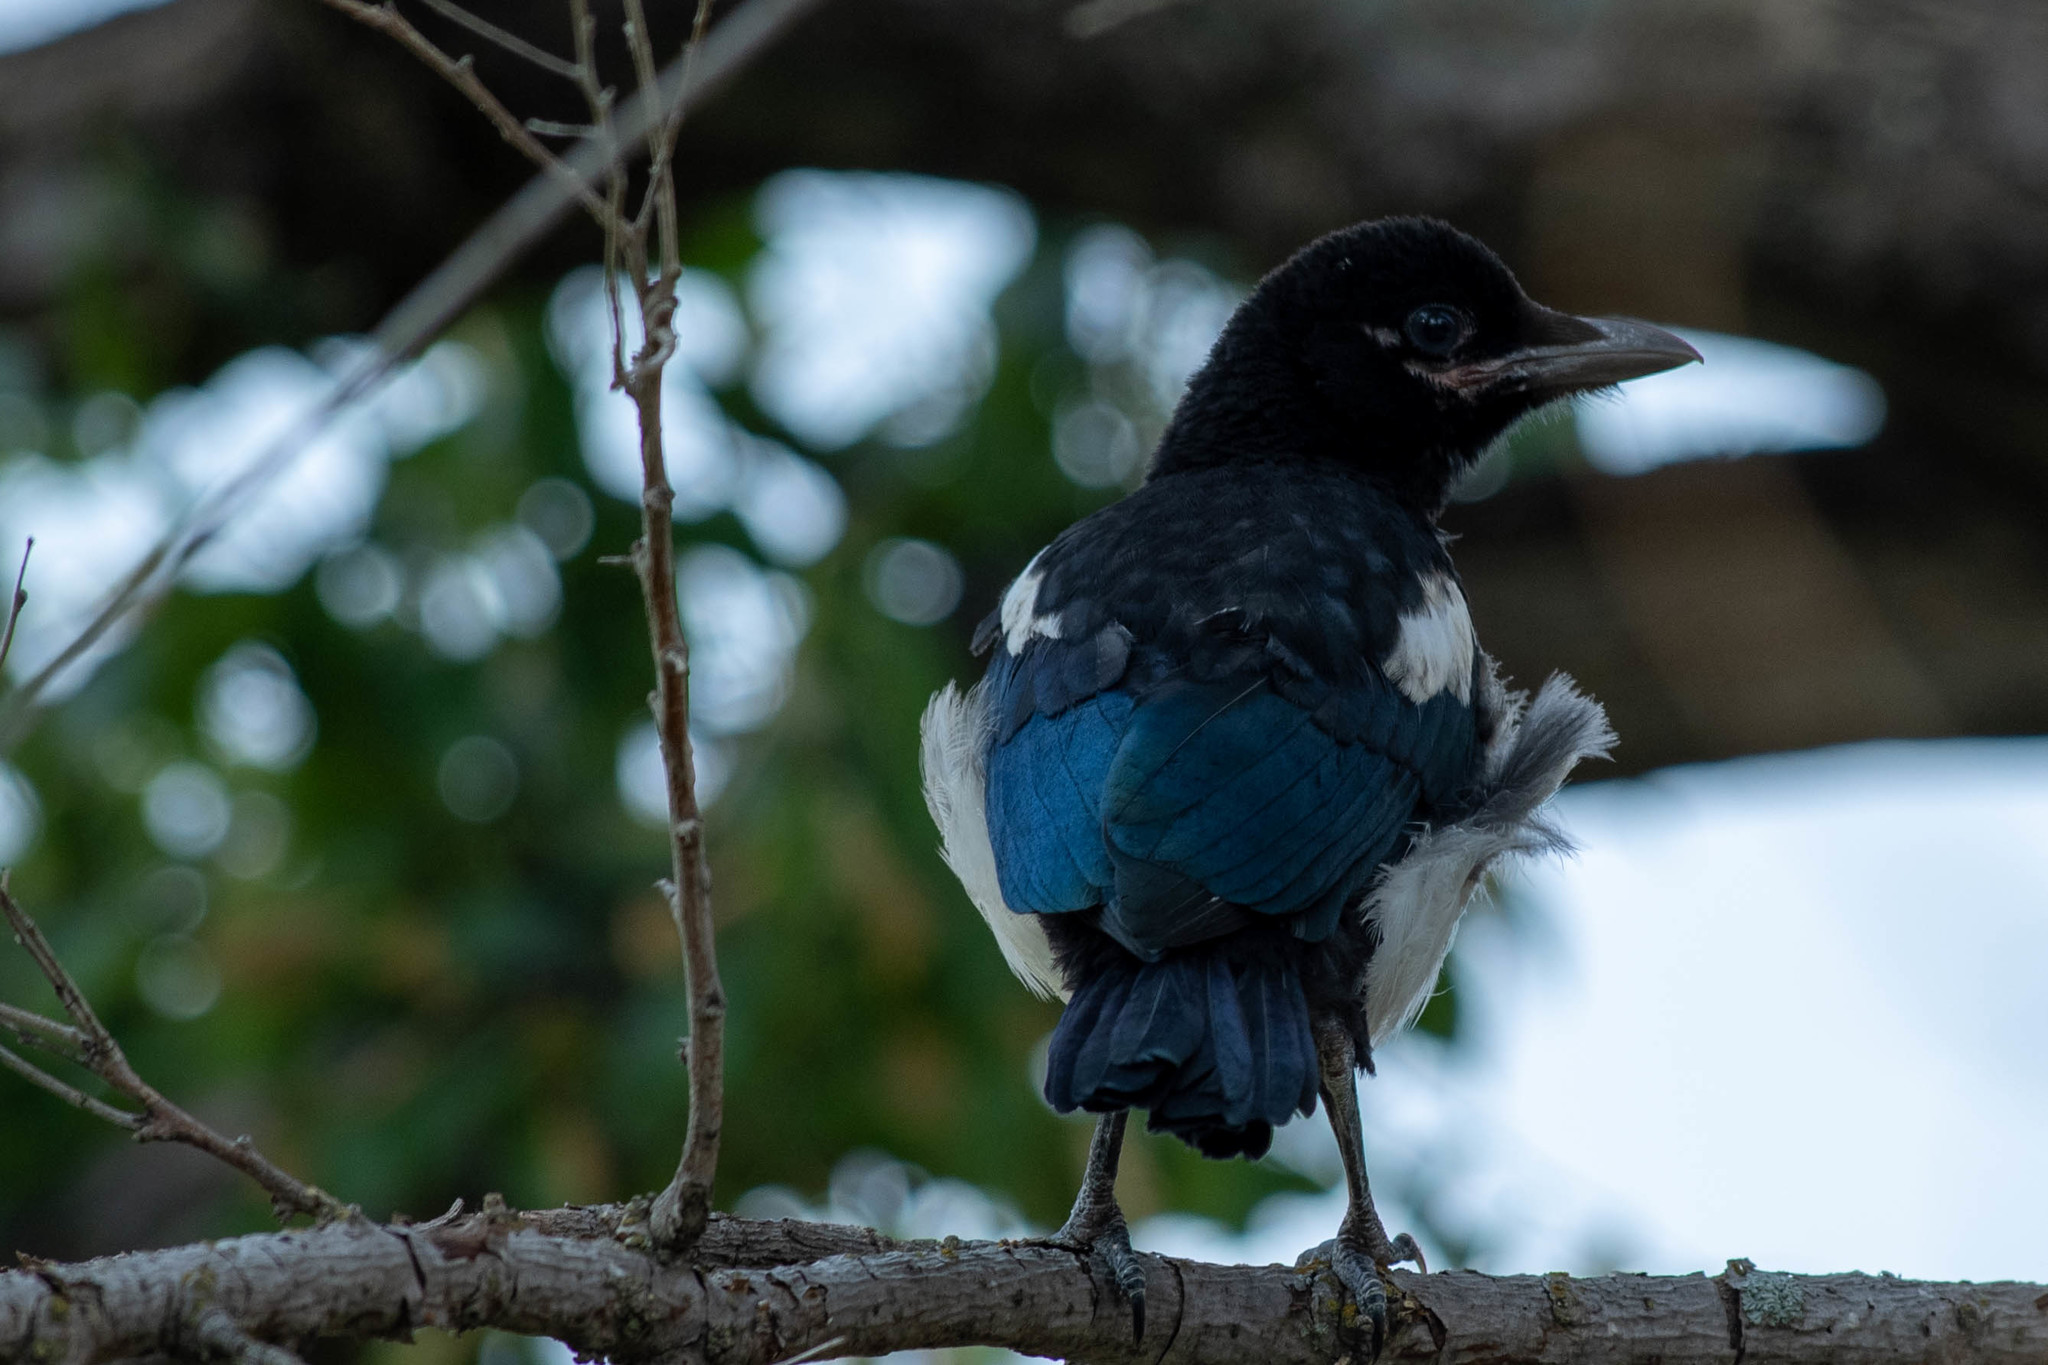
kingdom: Animalia
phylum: Chordata
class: Aves
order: Passeriformes
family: Corvidae
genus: Pica
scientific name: Pica hudsonia
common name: Black-billed magpie
